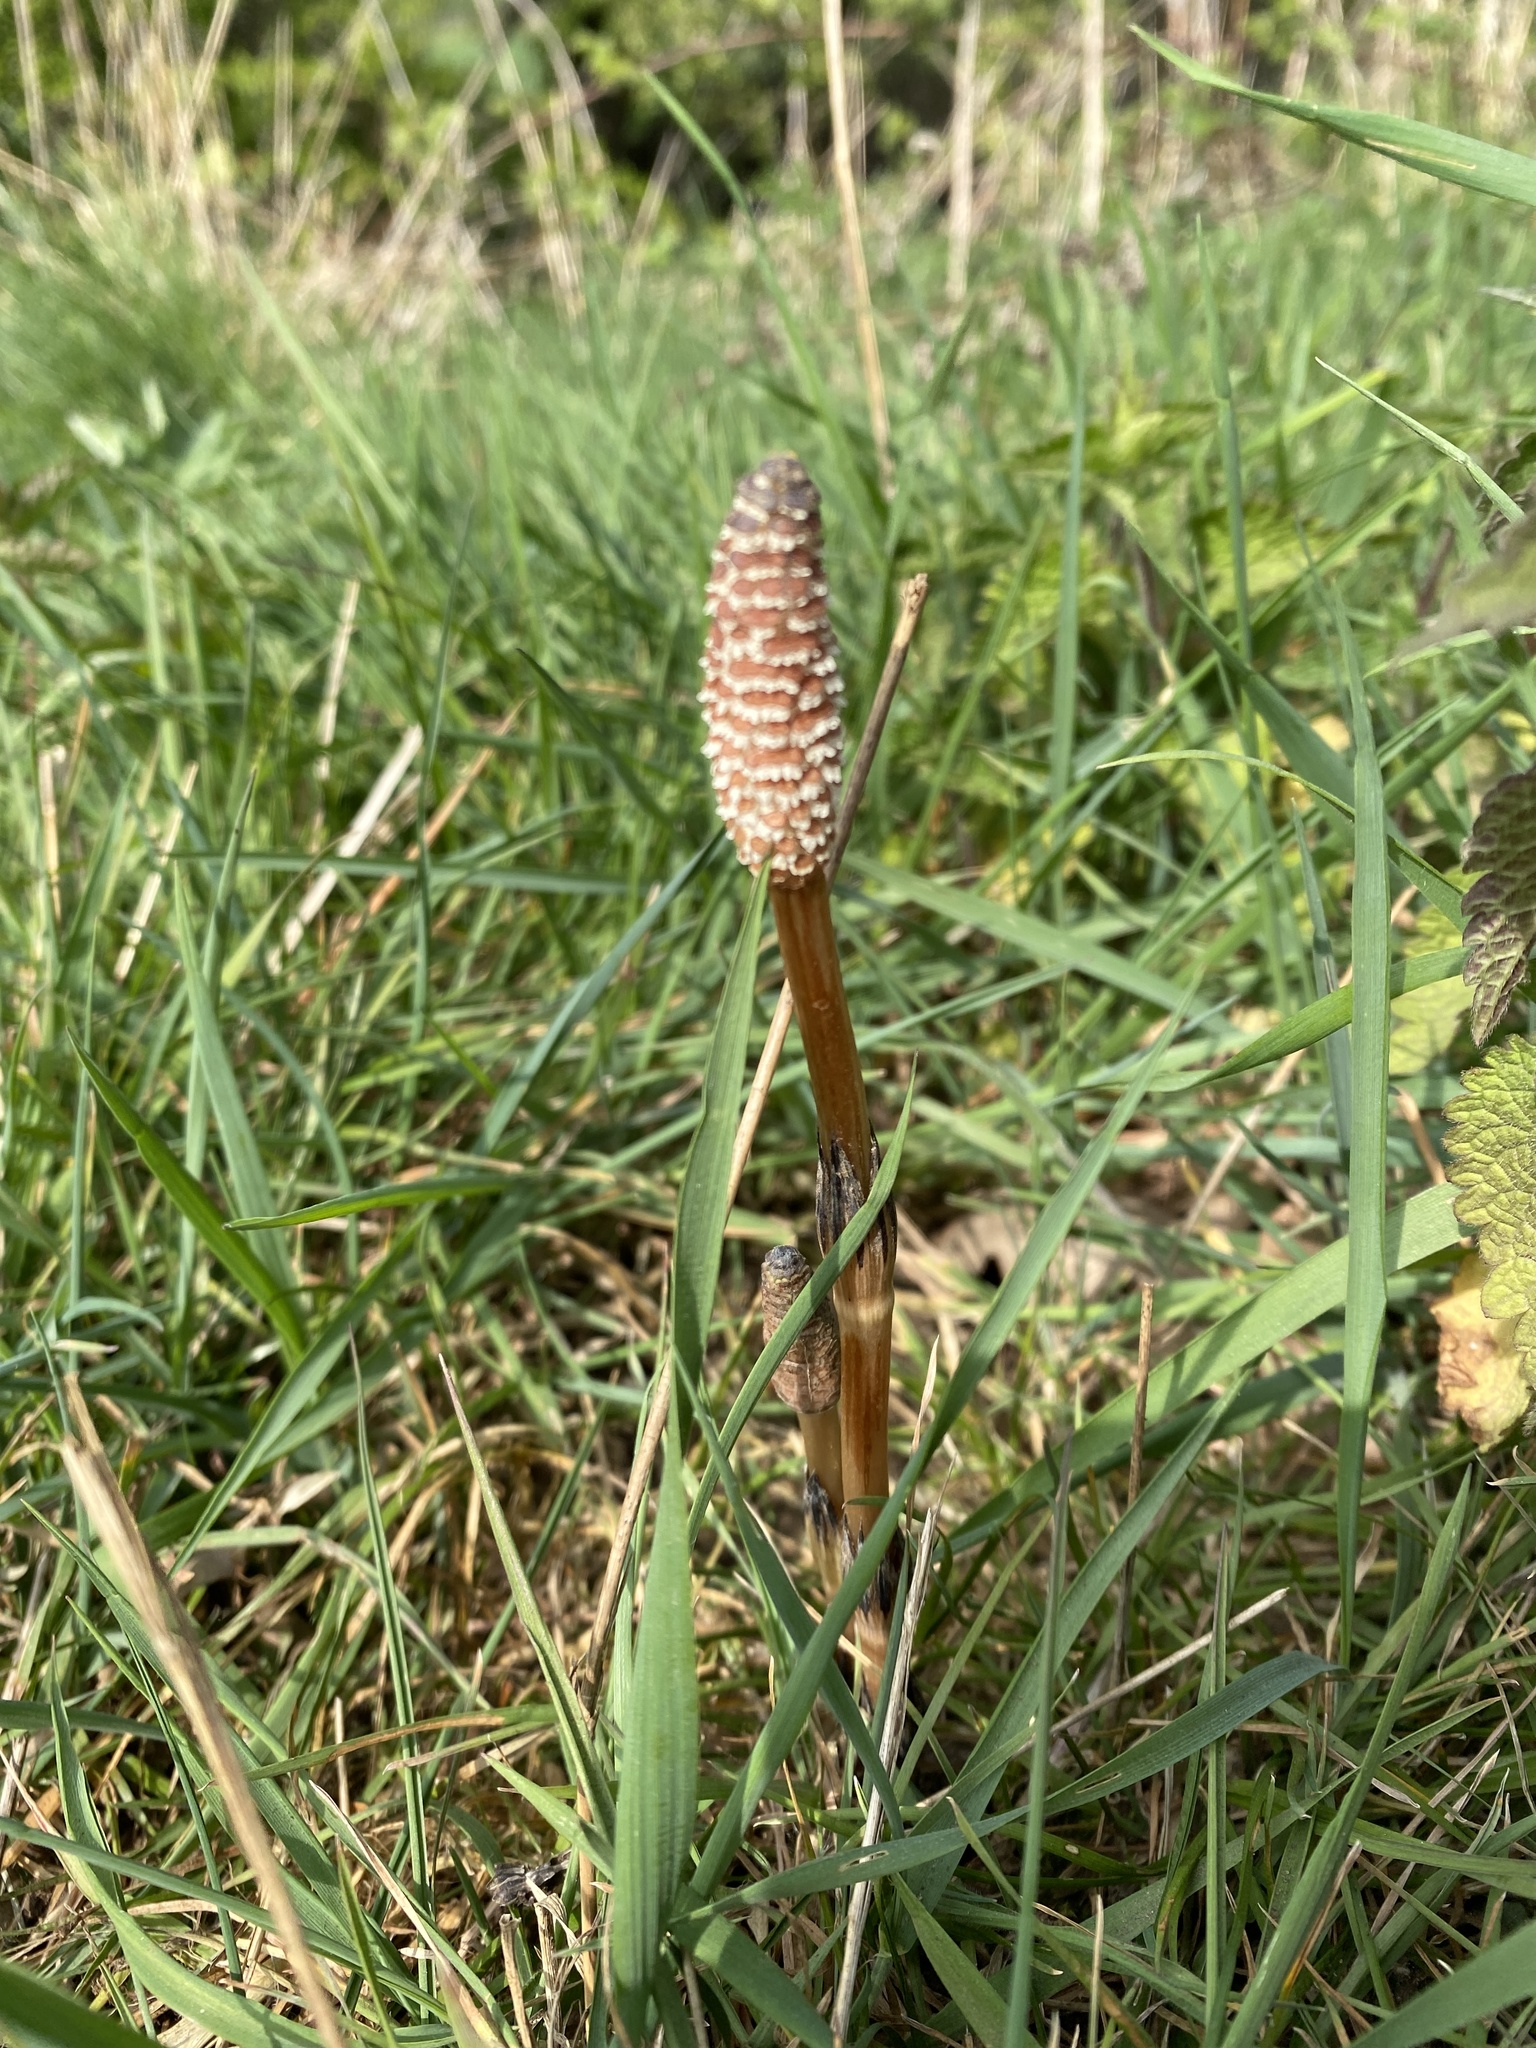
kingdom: Plantae
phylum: Tracheophyta
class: Polypodiopsida
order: Equisetales
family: Equisetaceae
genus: Equisetum
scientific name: Equisetum arvense
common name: Field horsetail
